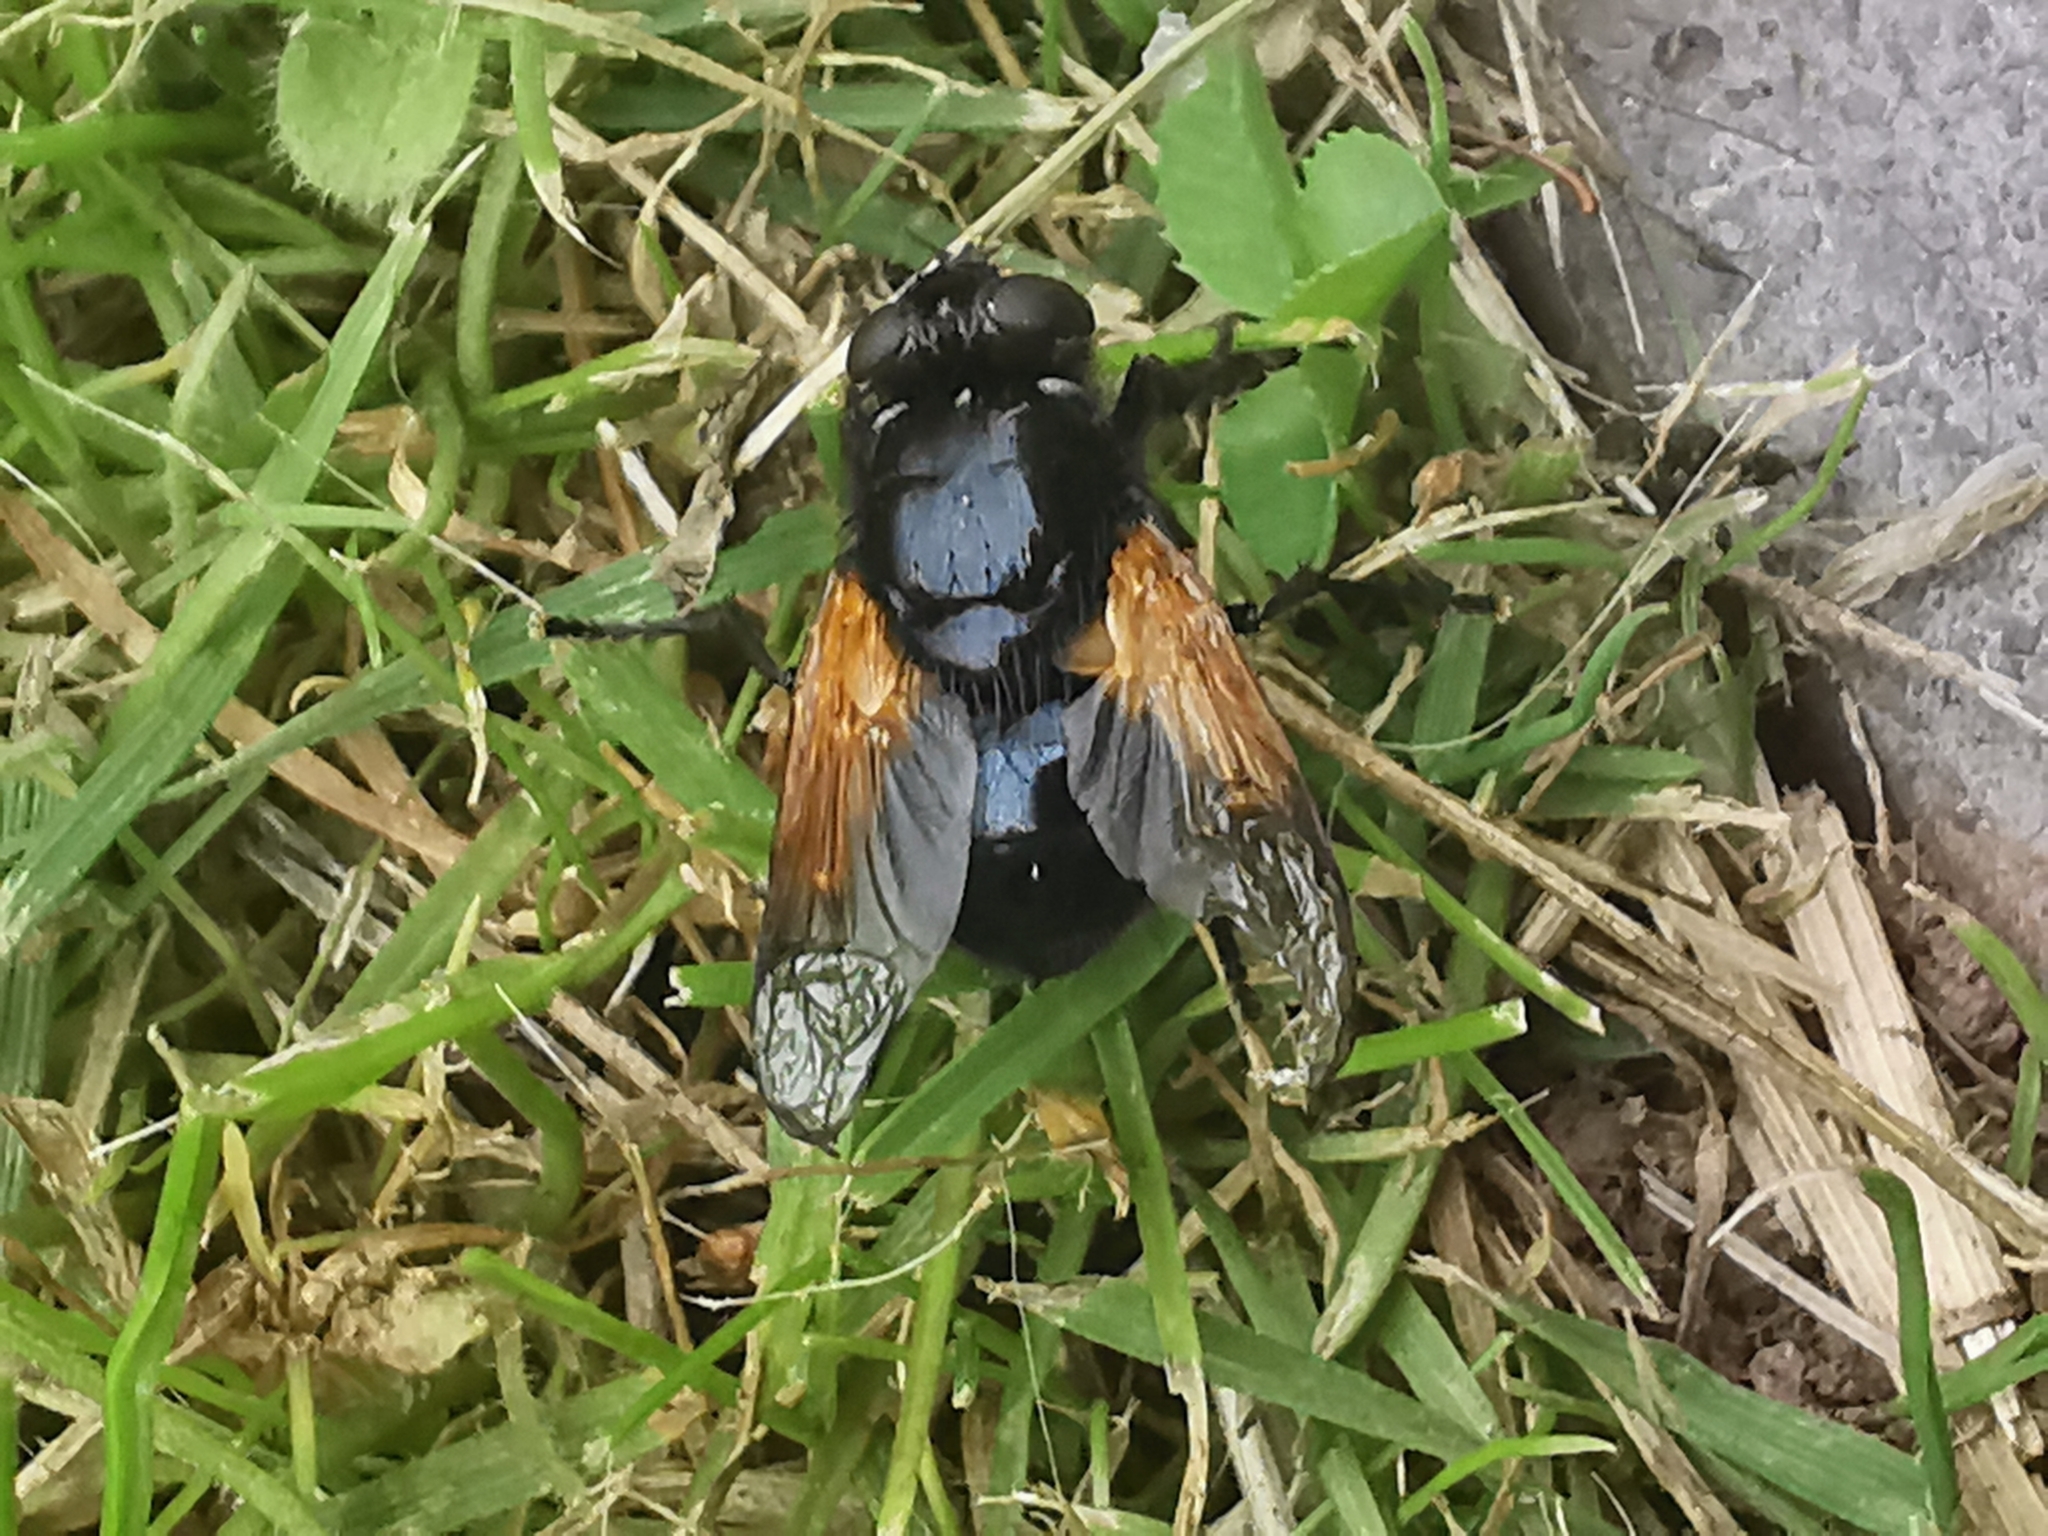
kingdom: Animalia
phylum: Arthropoda
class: Insecta
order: Diptera
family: Muscidae
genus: Mesembrina
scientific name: Mesembrina meridiana
